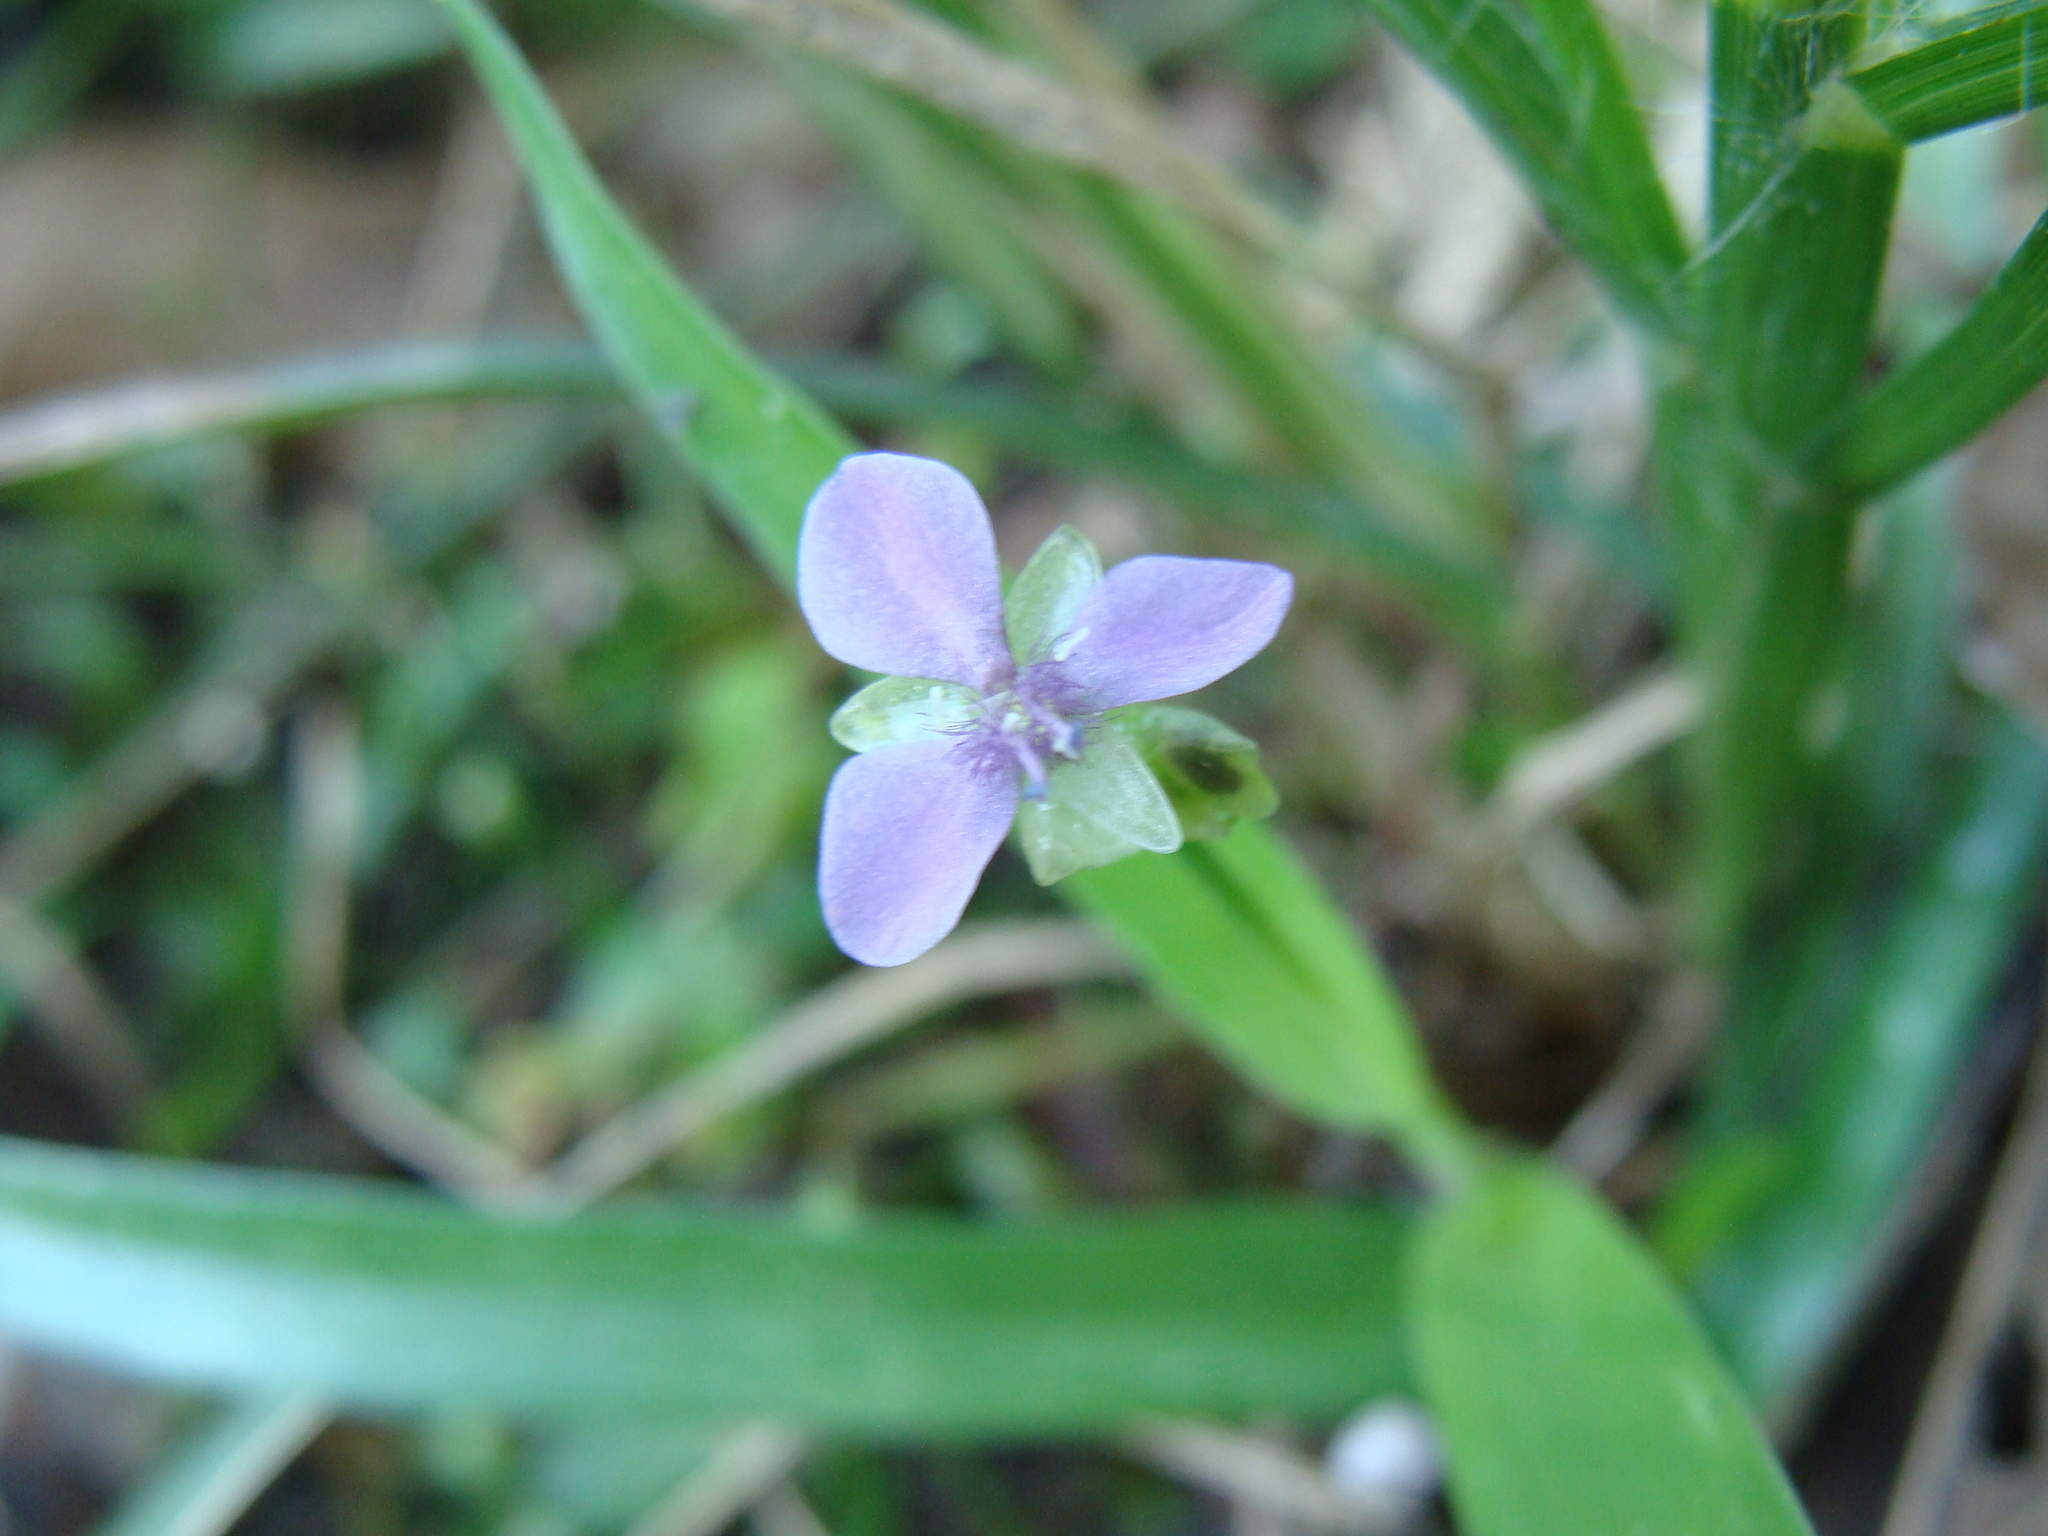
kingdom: Plantae
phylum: Tracheophyta
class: Liliopsida
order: Commelinales
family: Commelinaceae
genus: Murdannia
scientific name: Murdannia nudiflora
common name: Nakedstem dewflower
